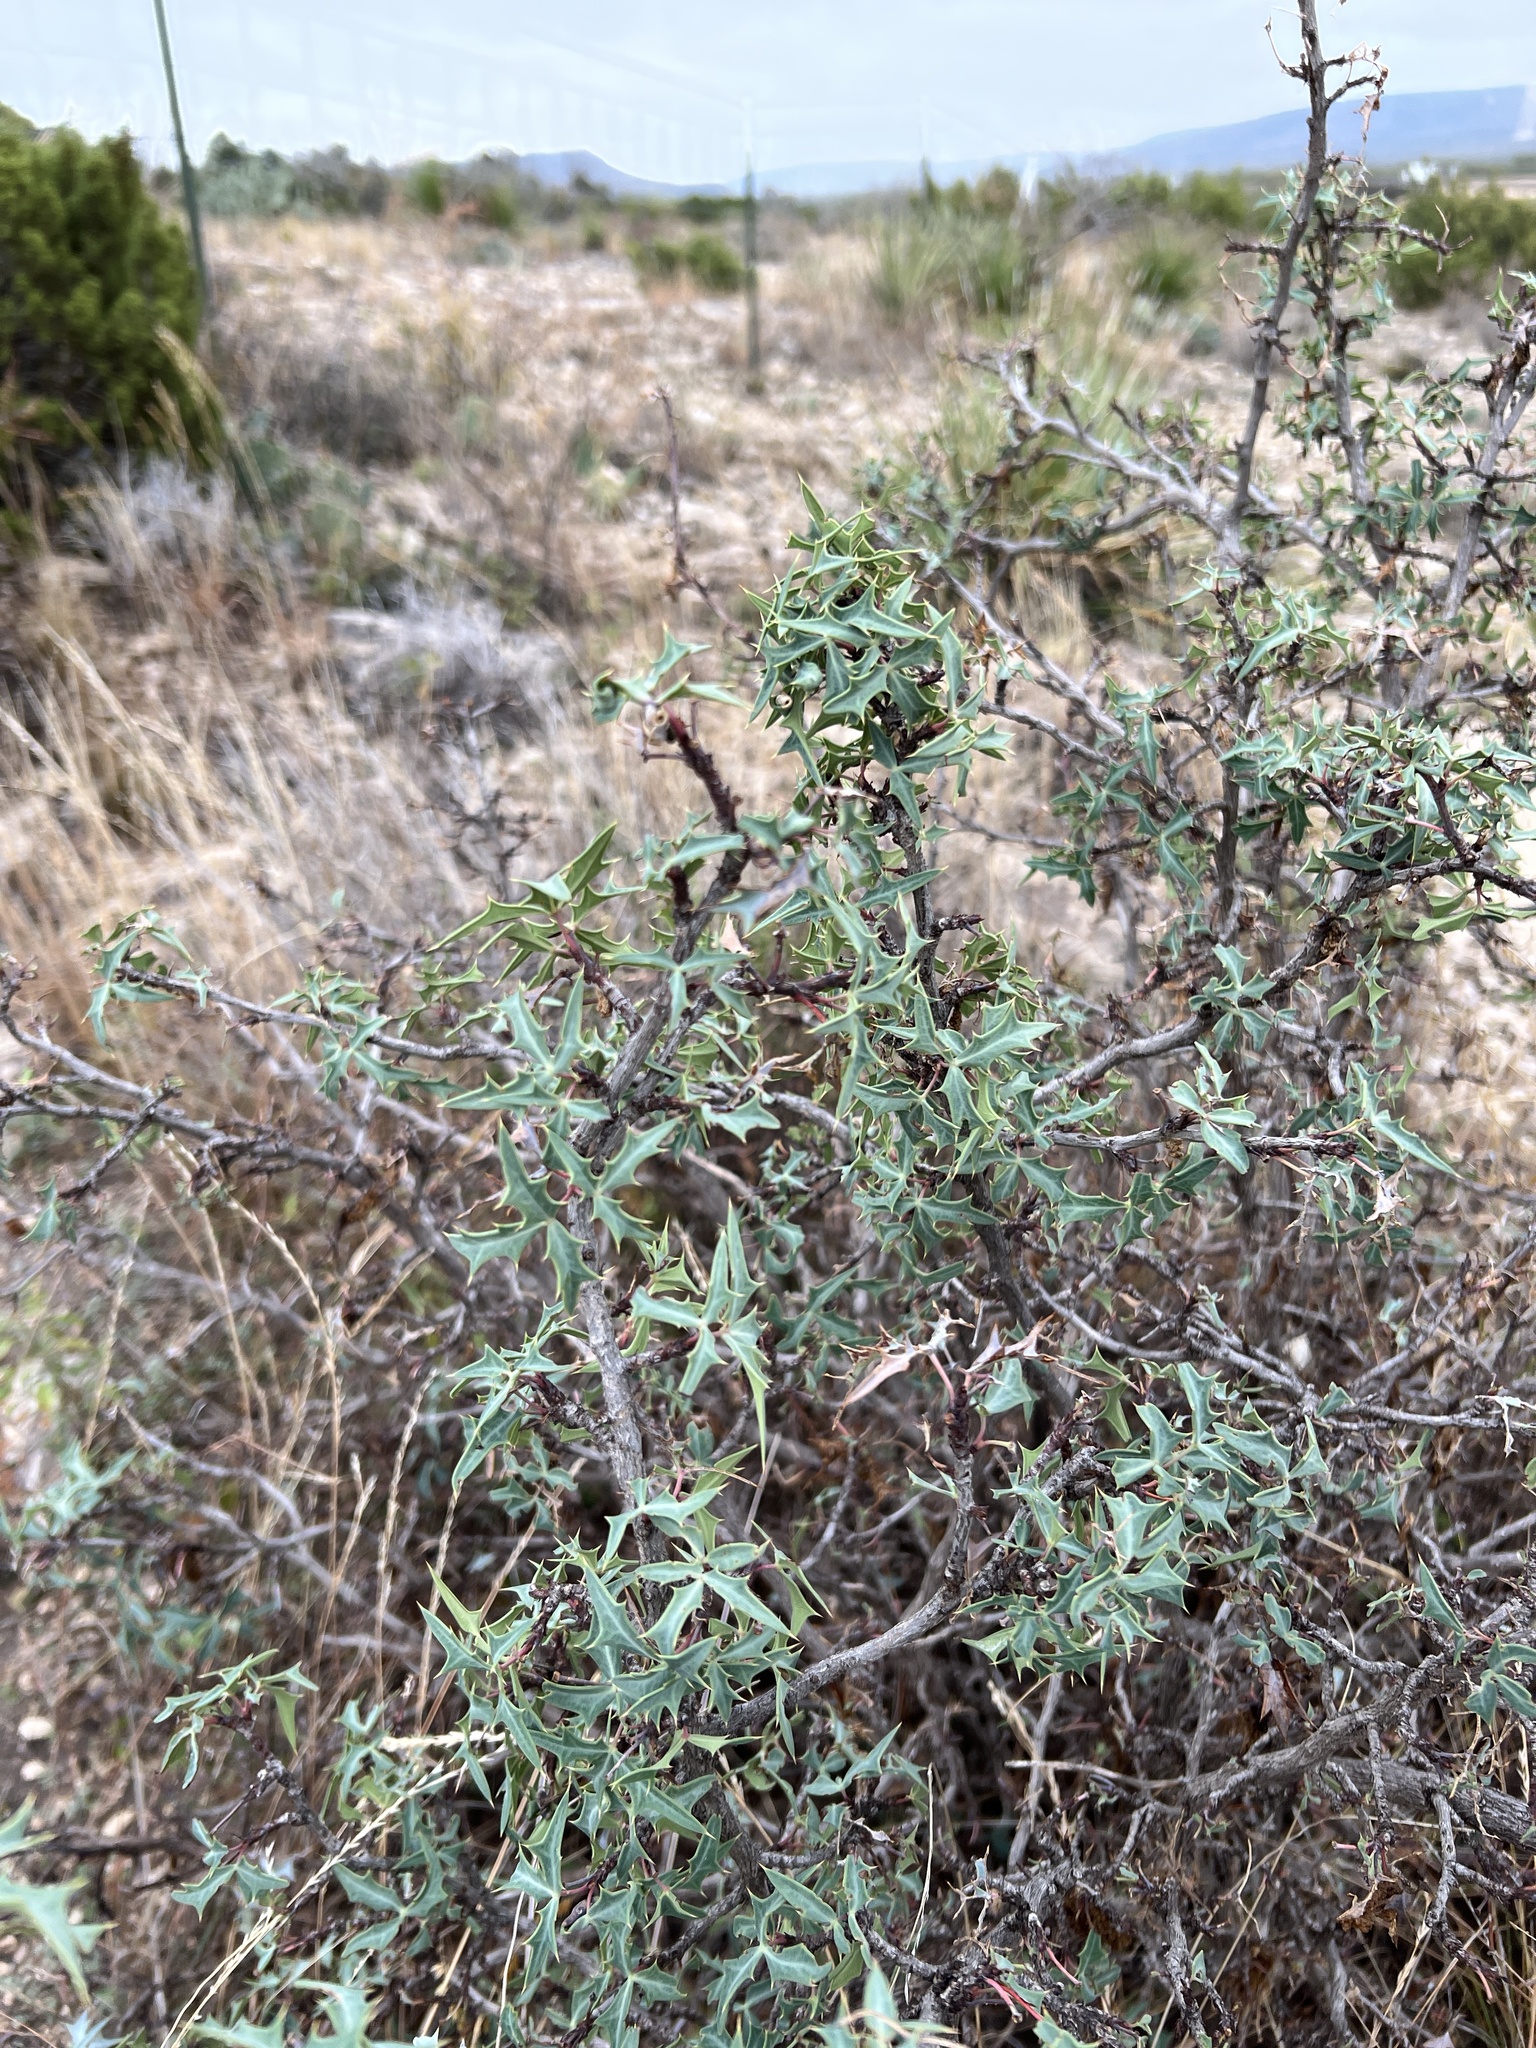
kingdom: Plantae
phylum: Tracheophyta
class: Magnoliopsida
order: Ranunculales
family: Berberidaceae
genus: Alloberberis
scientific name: Alloberberis trifoliolata
